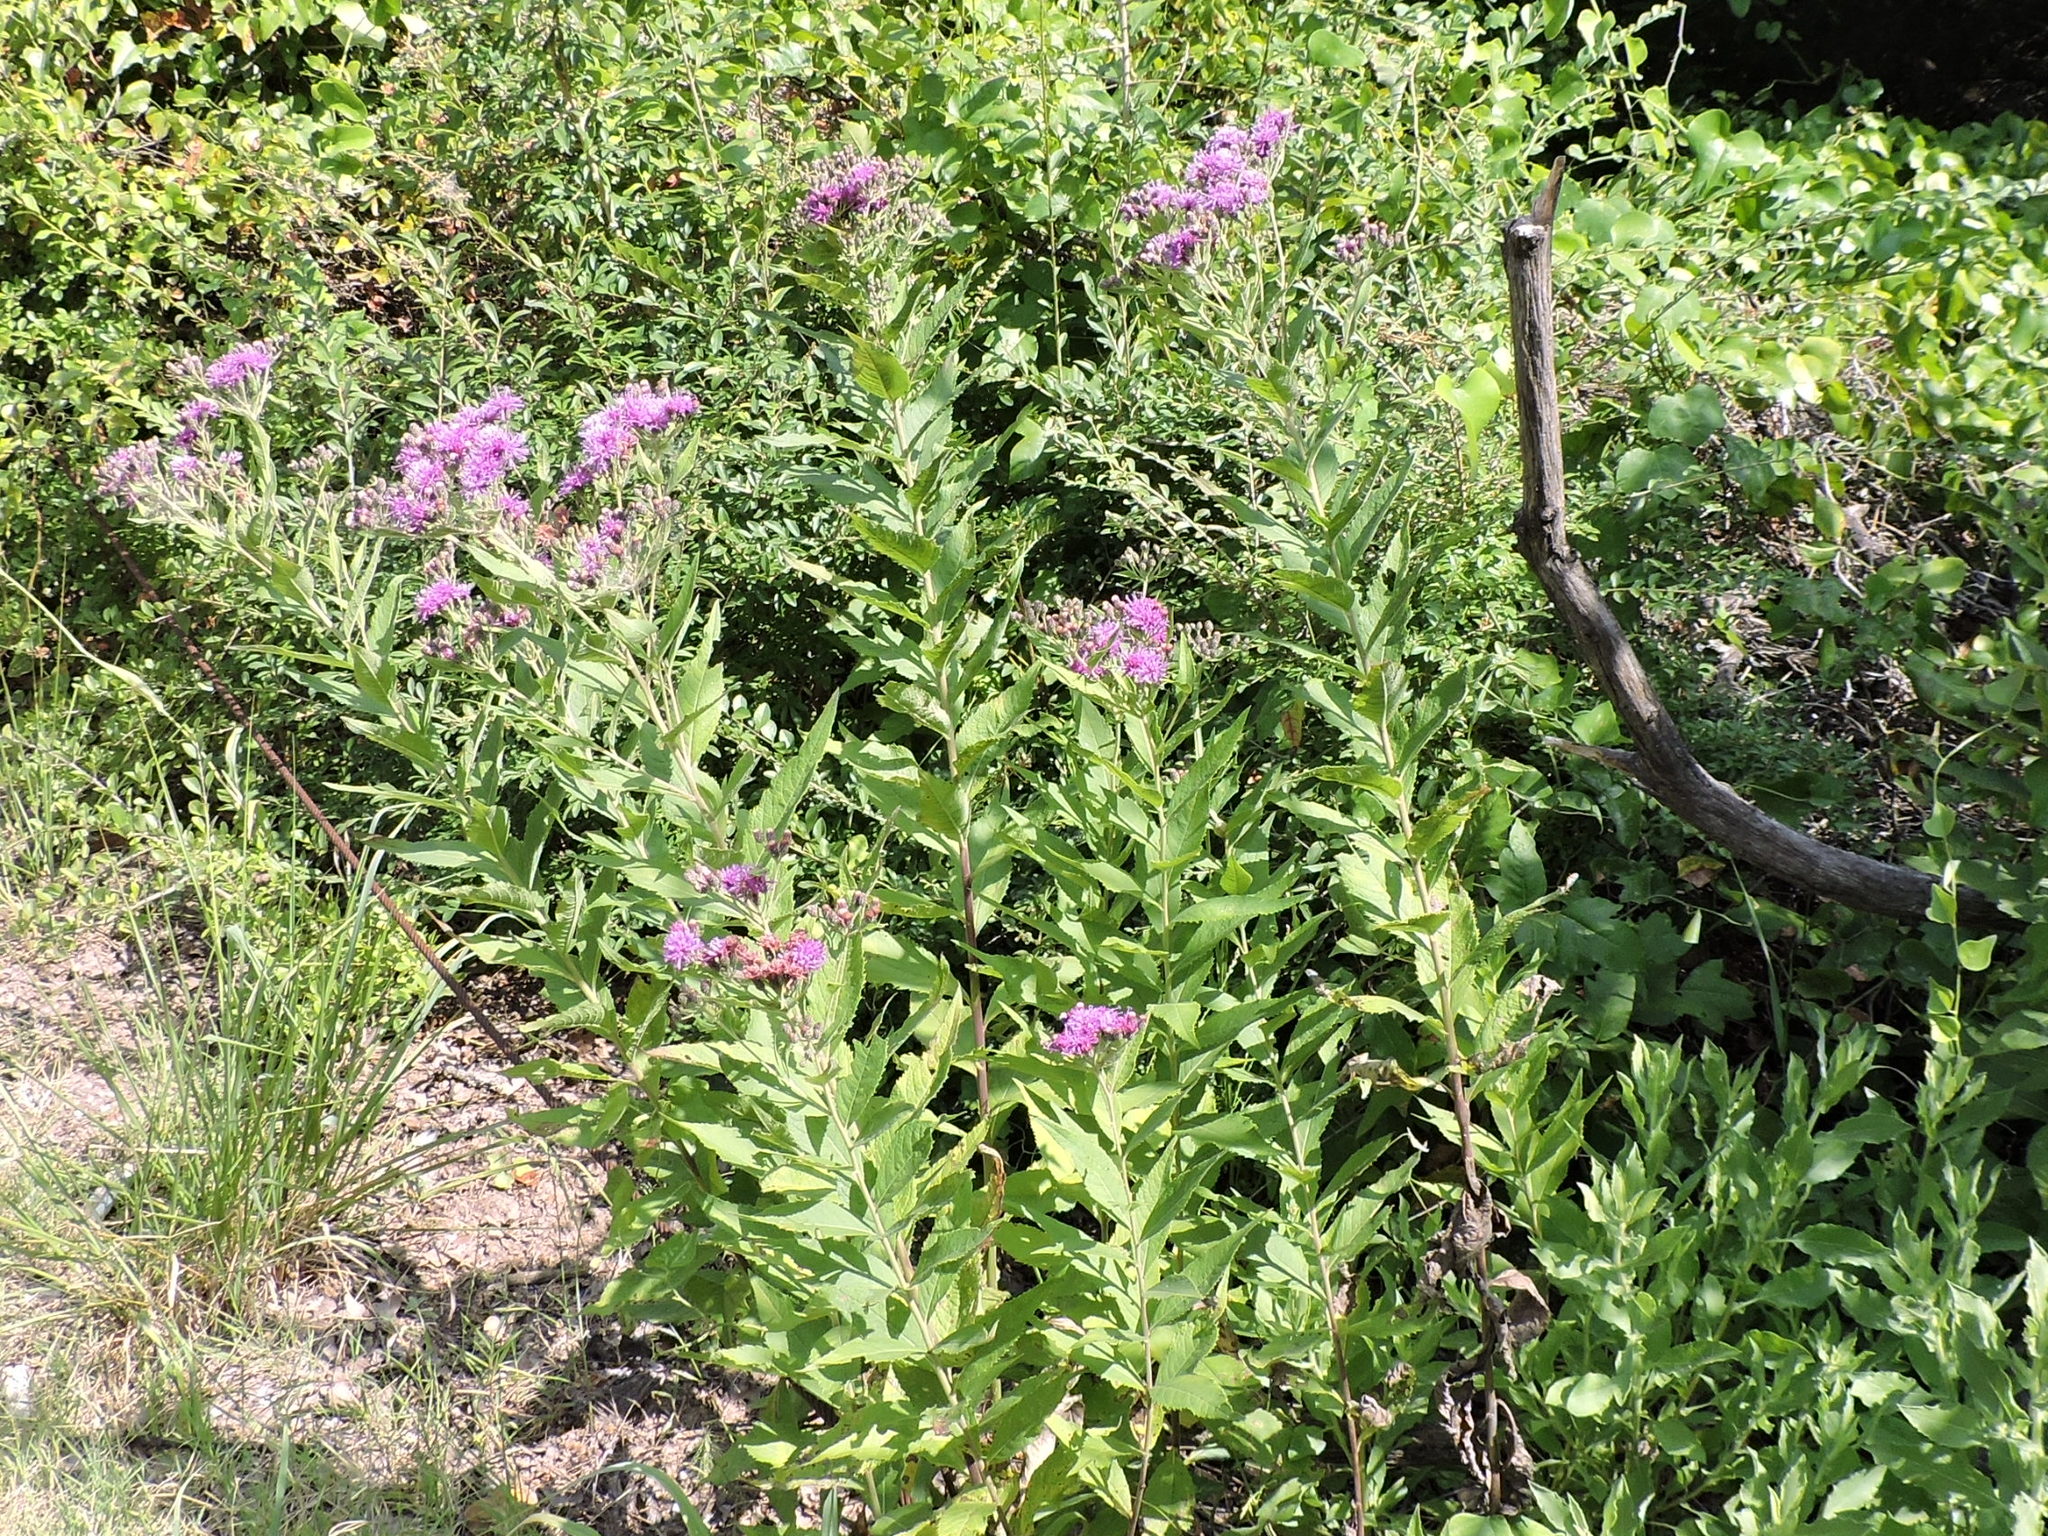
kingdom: Plantae
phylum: Tracheophyta
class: Magnoliopsida
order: Asterales
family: Asteraceae
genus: Vernonia
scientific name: Vernonia baldwinii
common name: Western ironweed
